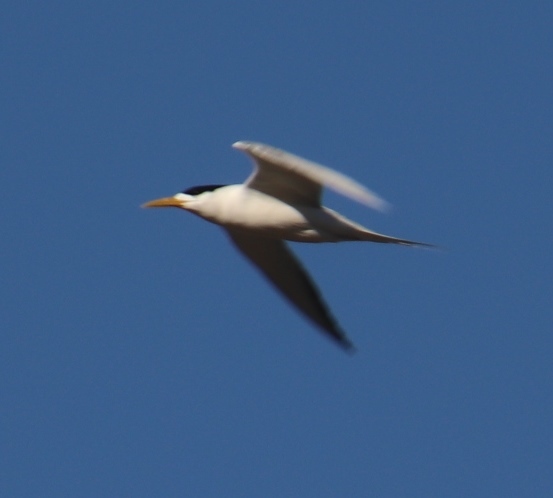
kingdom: Animalia
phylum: Chordata
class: Aves
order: Charadriiformes
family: Laridae
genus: Thalasseus
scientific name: Thalasseus bergii
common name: Greater crested tern
